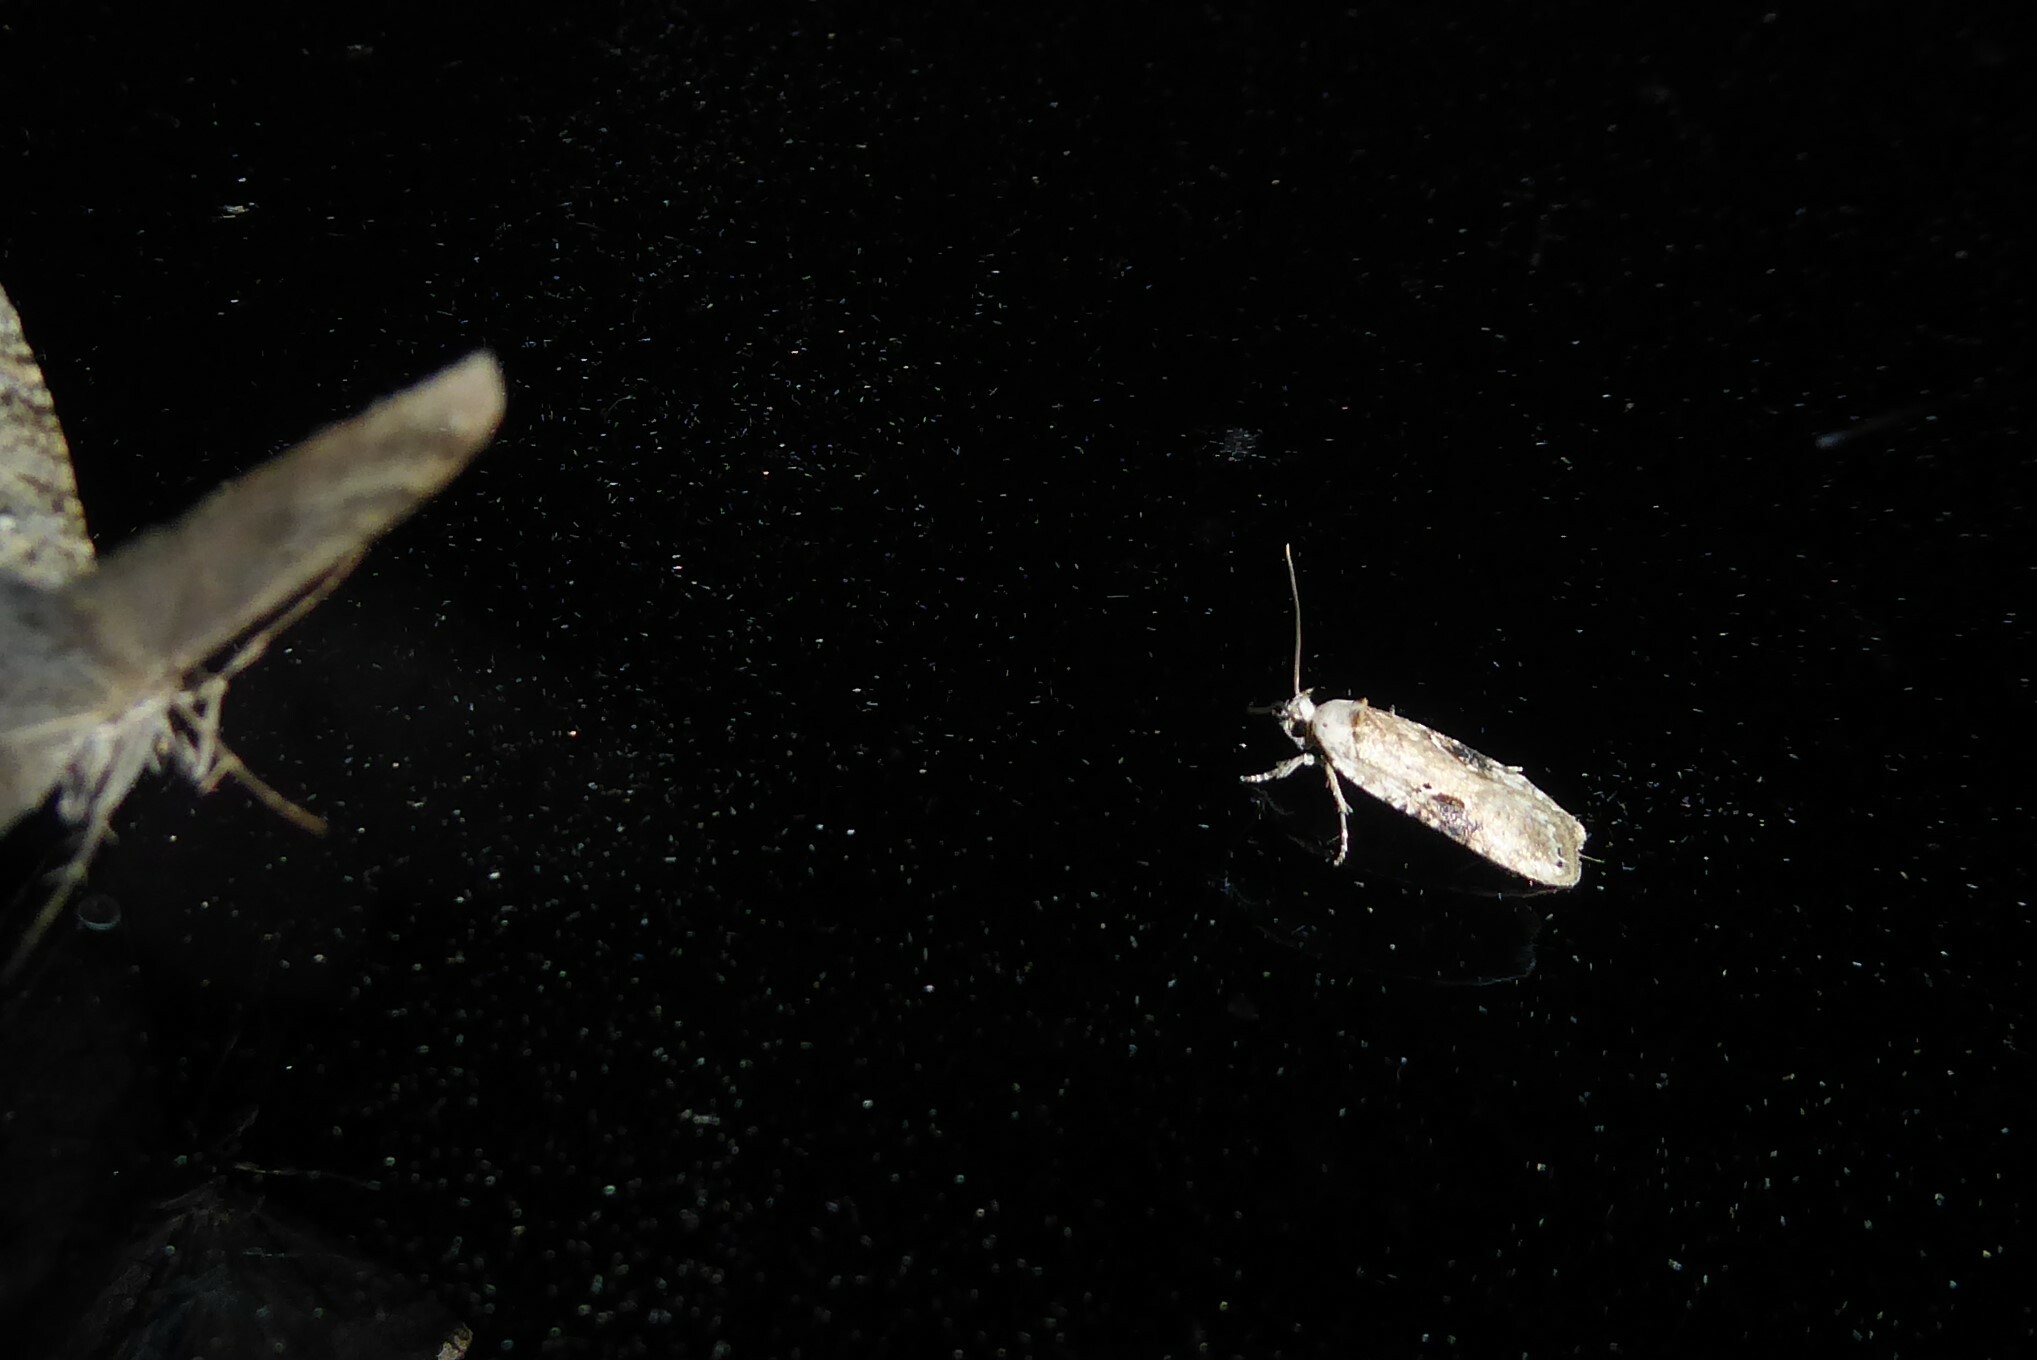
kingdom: Animalia
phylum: Arthropoda
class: Insecta
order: Lepidoptera
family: Depressariidae
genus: Agonopterix
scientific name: Agonopterix alstroemeriana
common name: Moth
